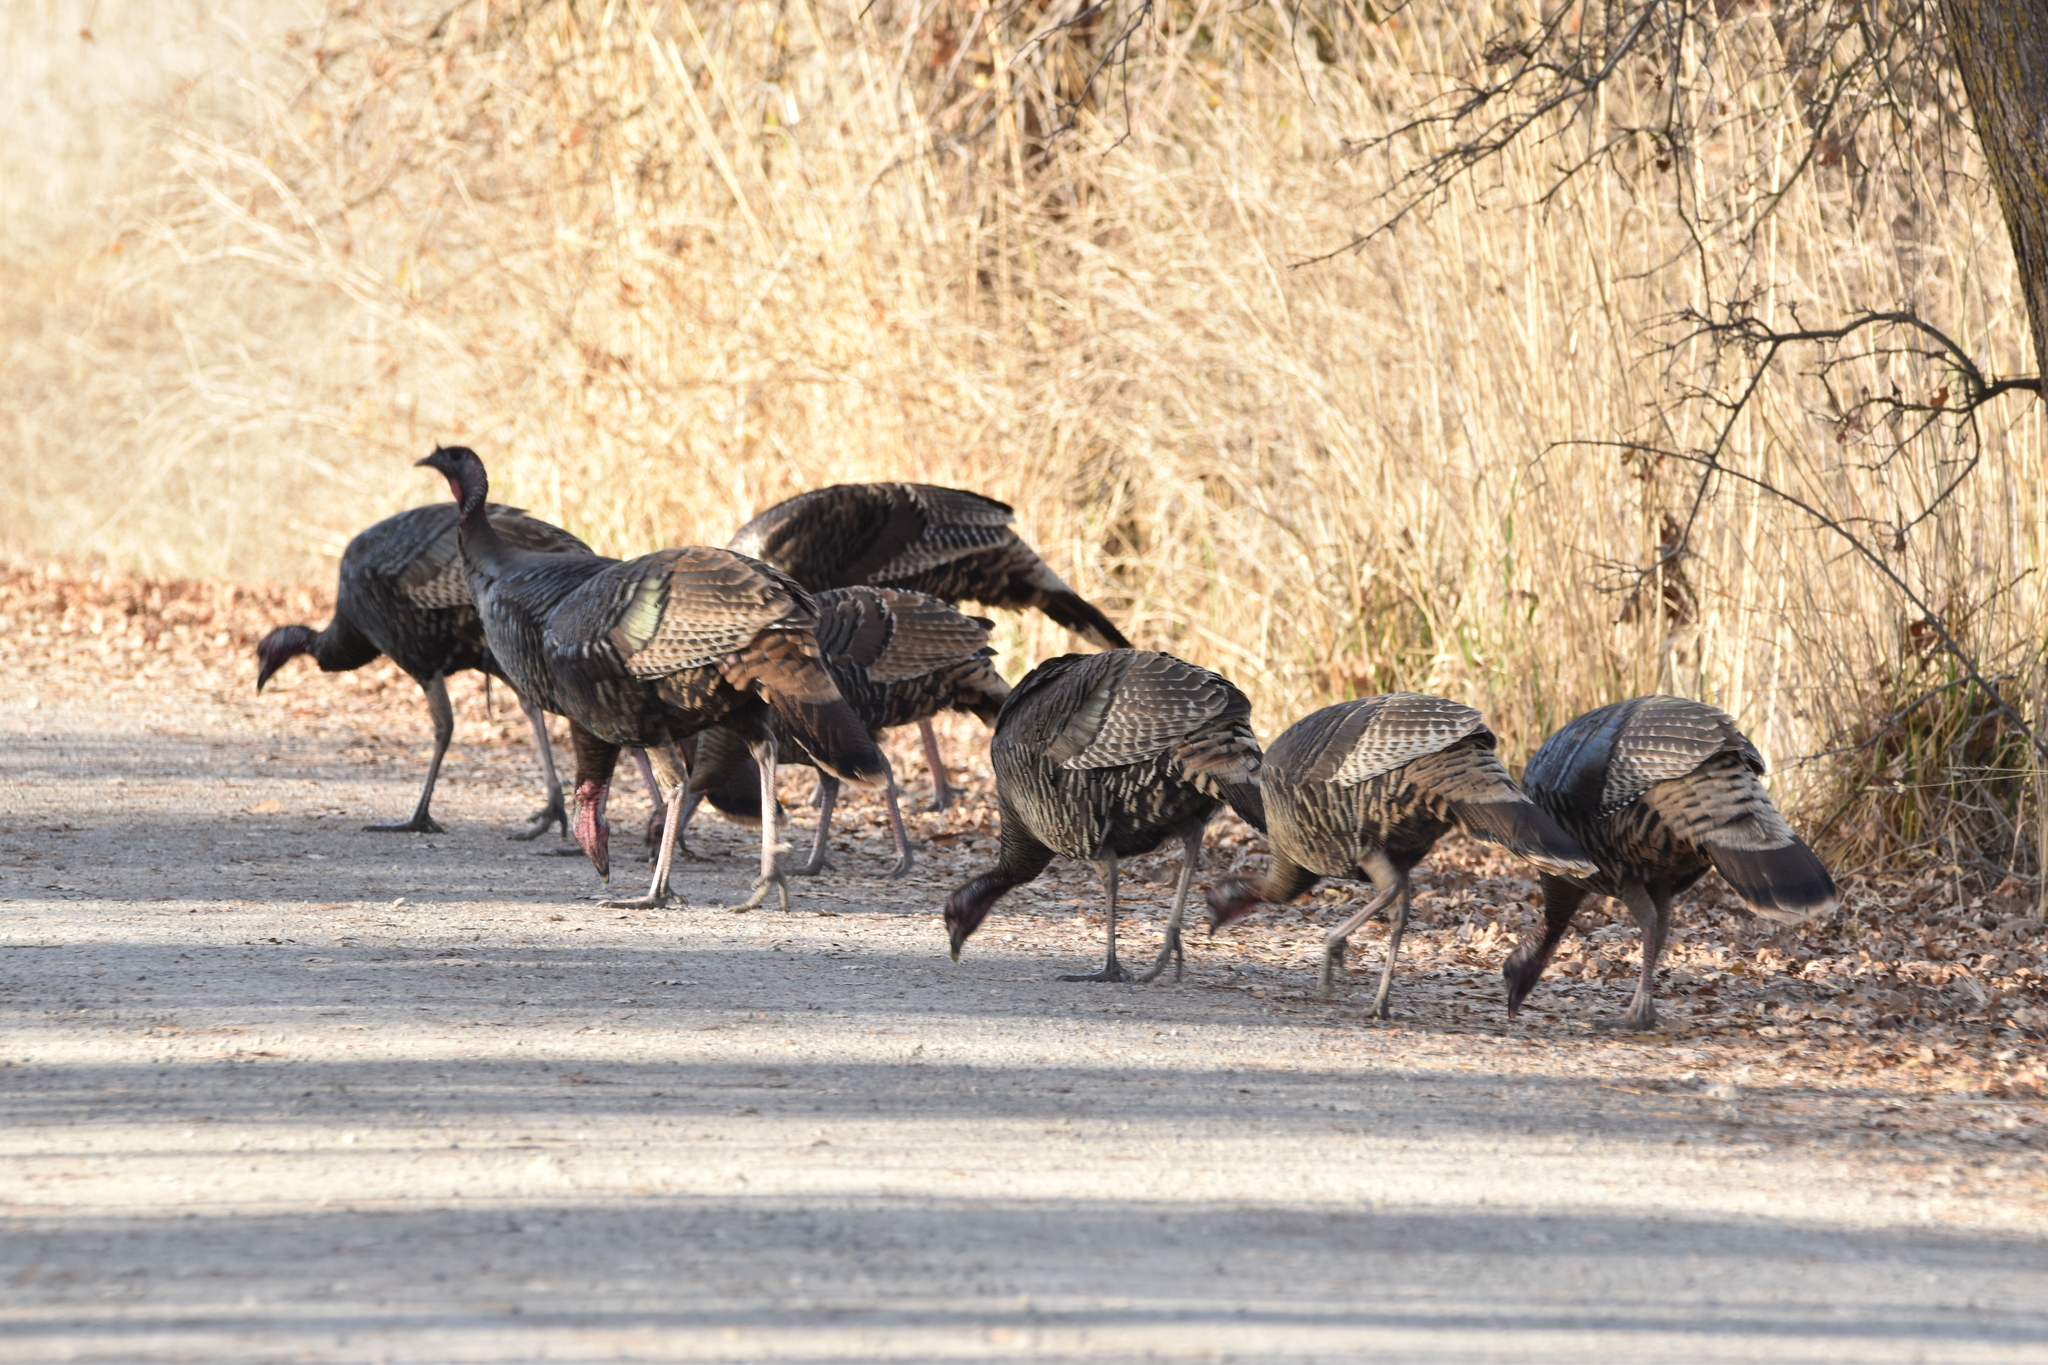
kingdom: Animalia
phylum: Chordata
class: Aves
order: Galliformes
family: Phasianidae
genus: Meleagris
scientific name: Meleagris gallopavo
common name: Wild turkey
